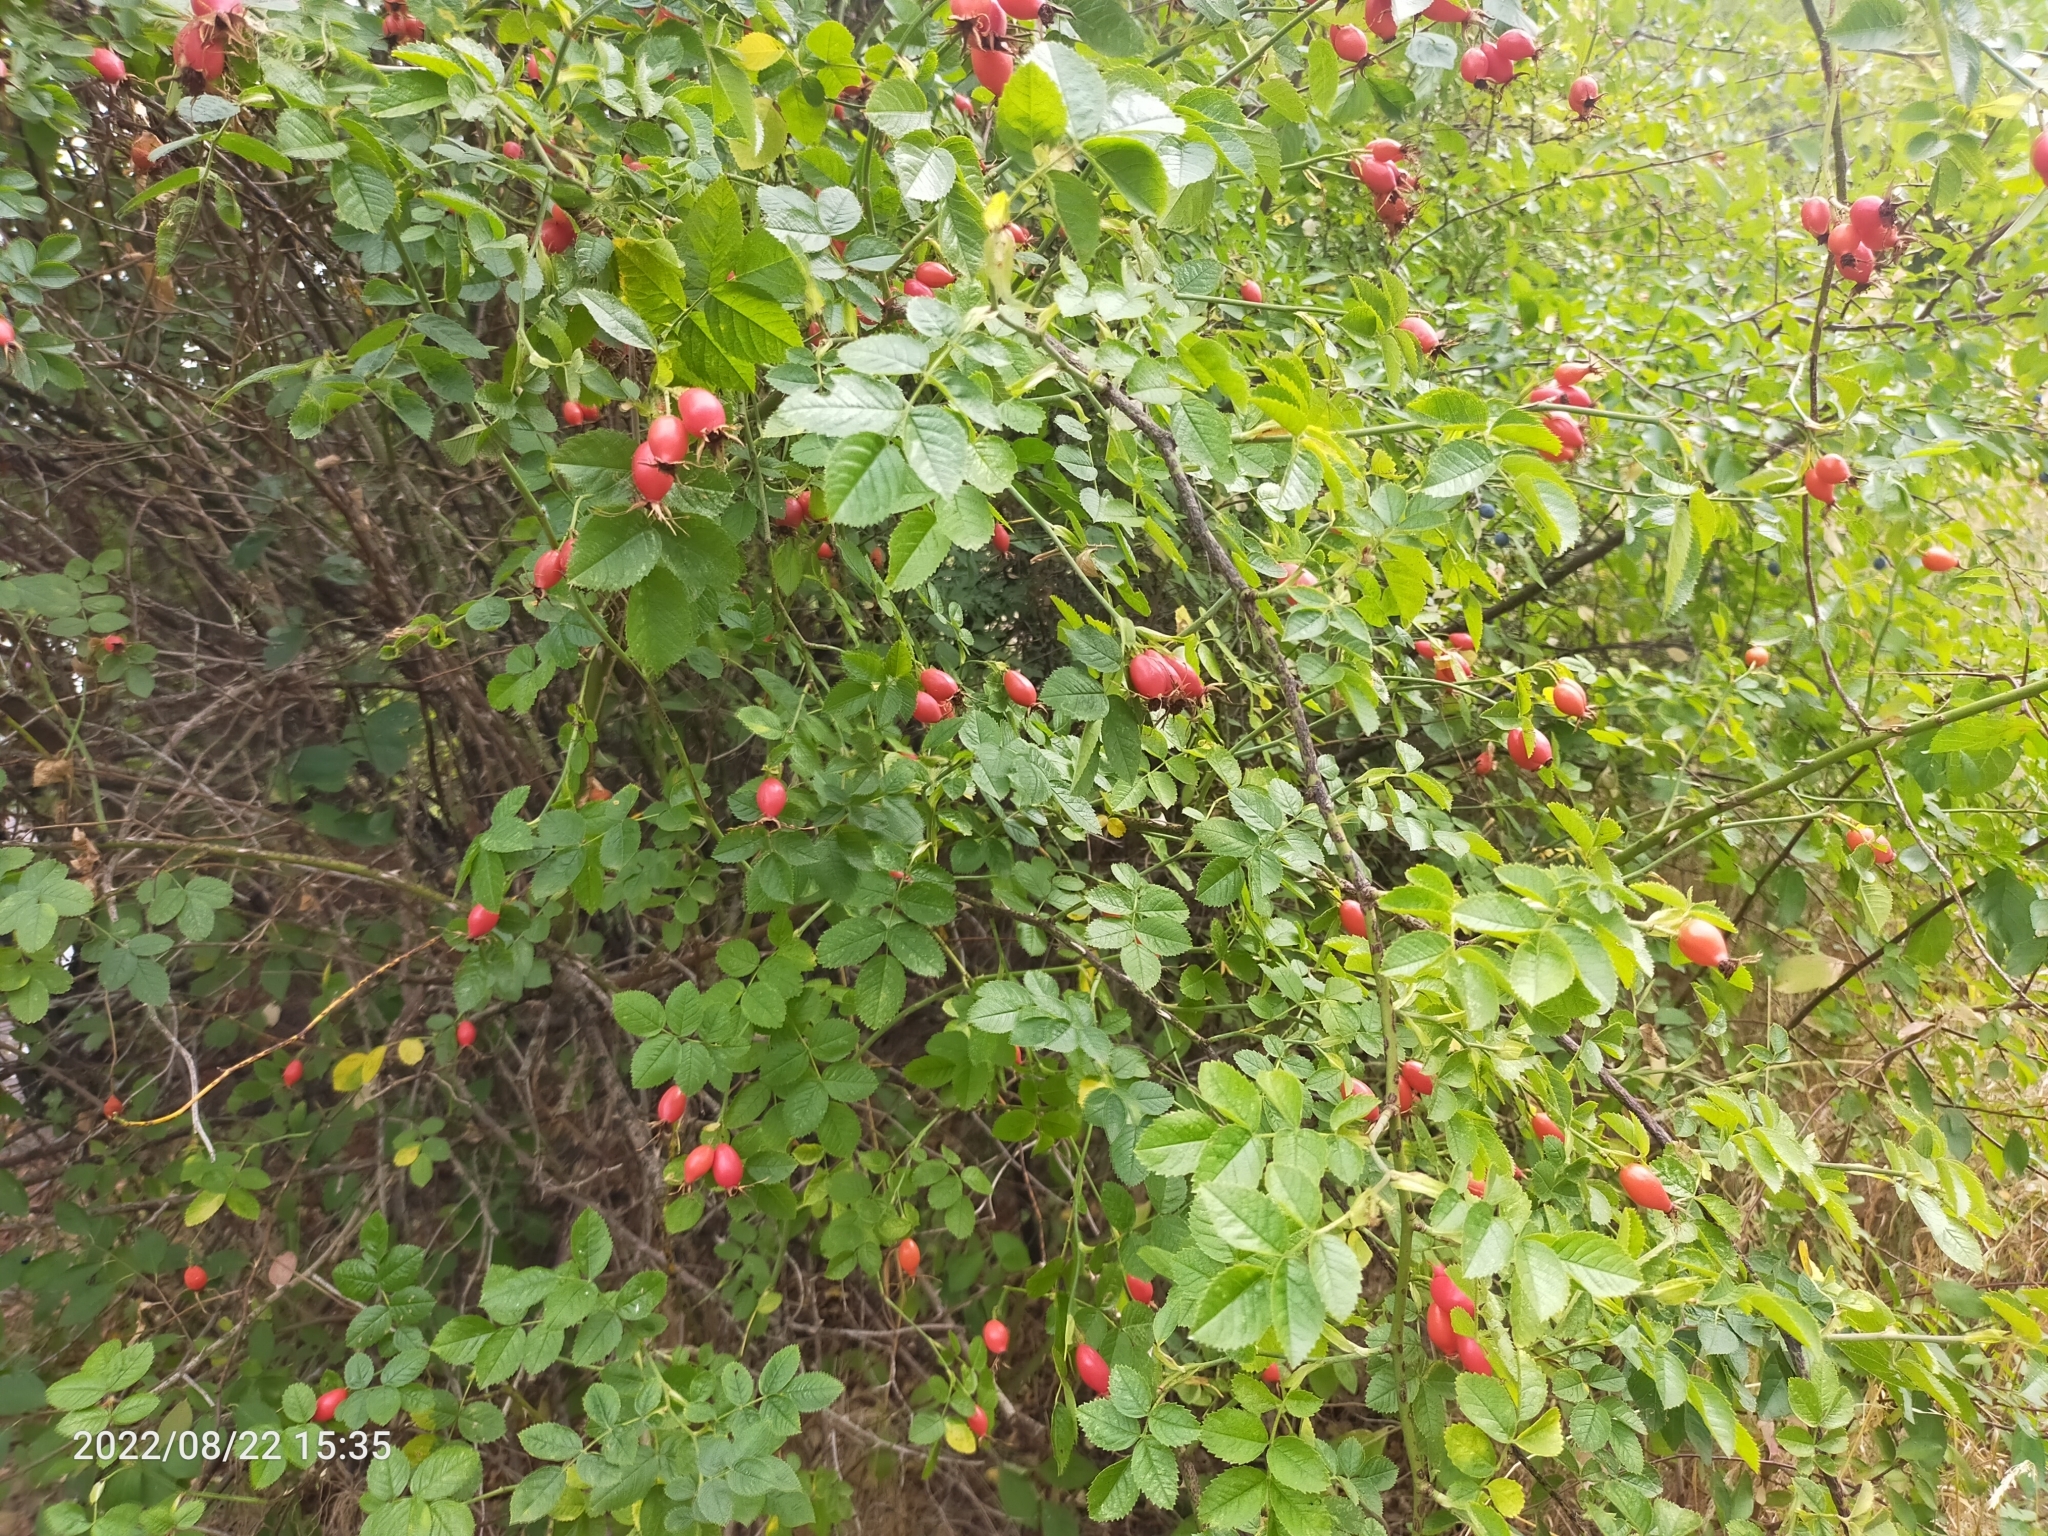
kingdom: Plantae
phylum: Tracheophyta
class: Magnoliopsida
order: Rosales
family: Rosaceae
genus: Rosa
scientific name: Rosa canina
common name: Dog rose
